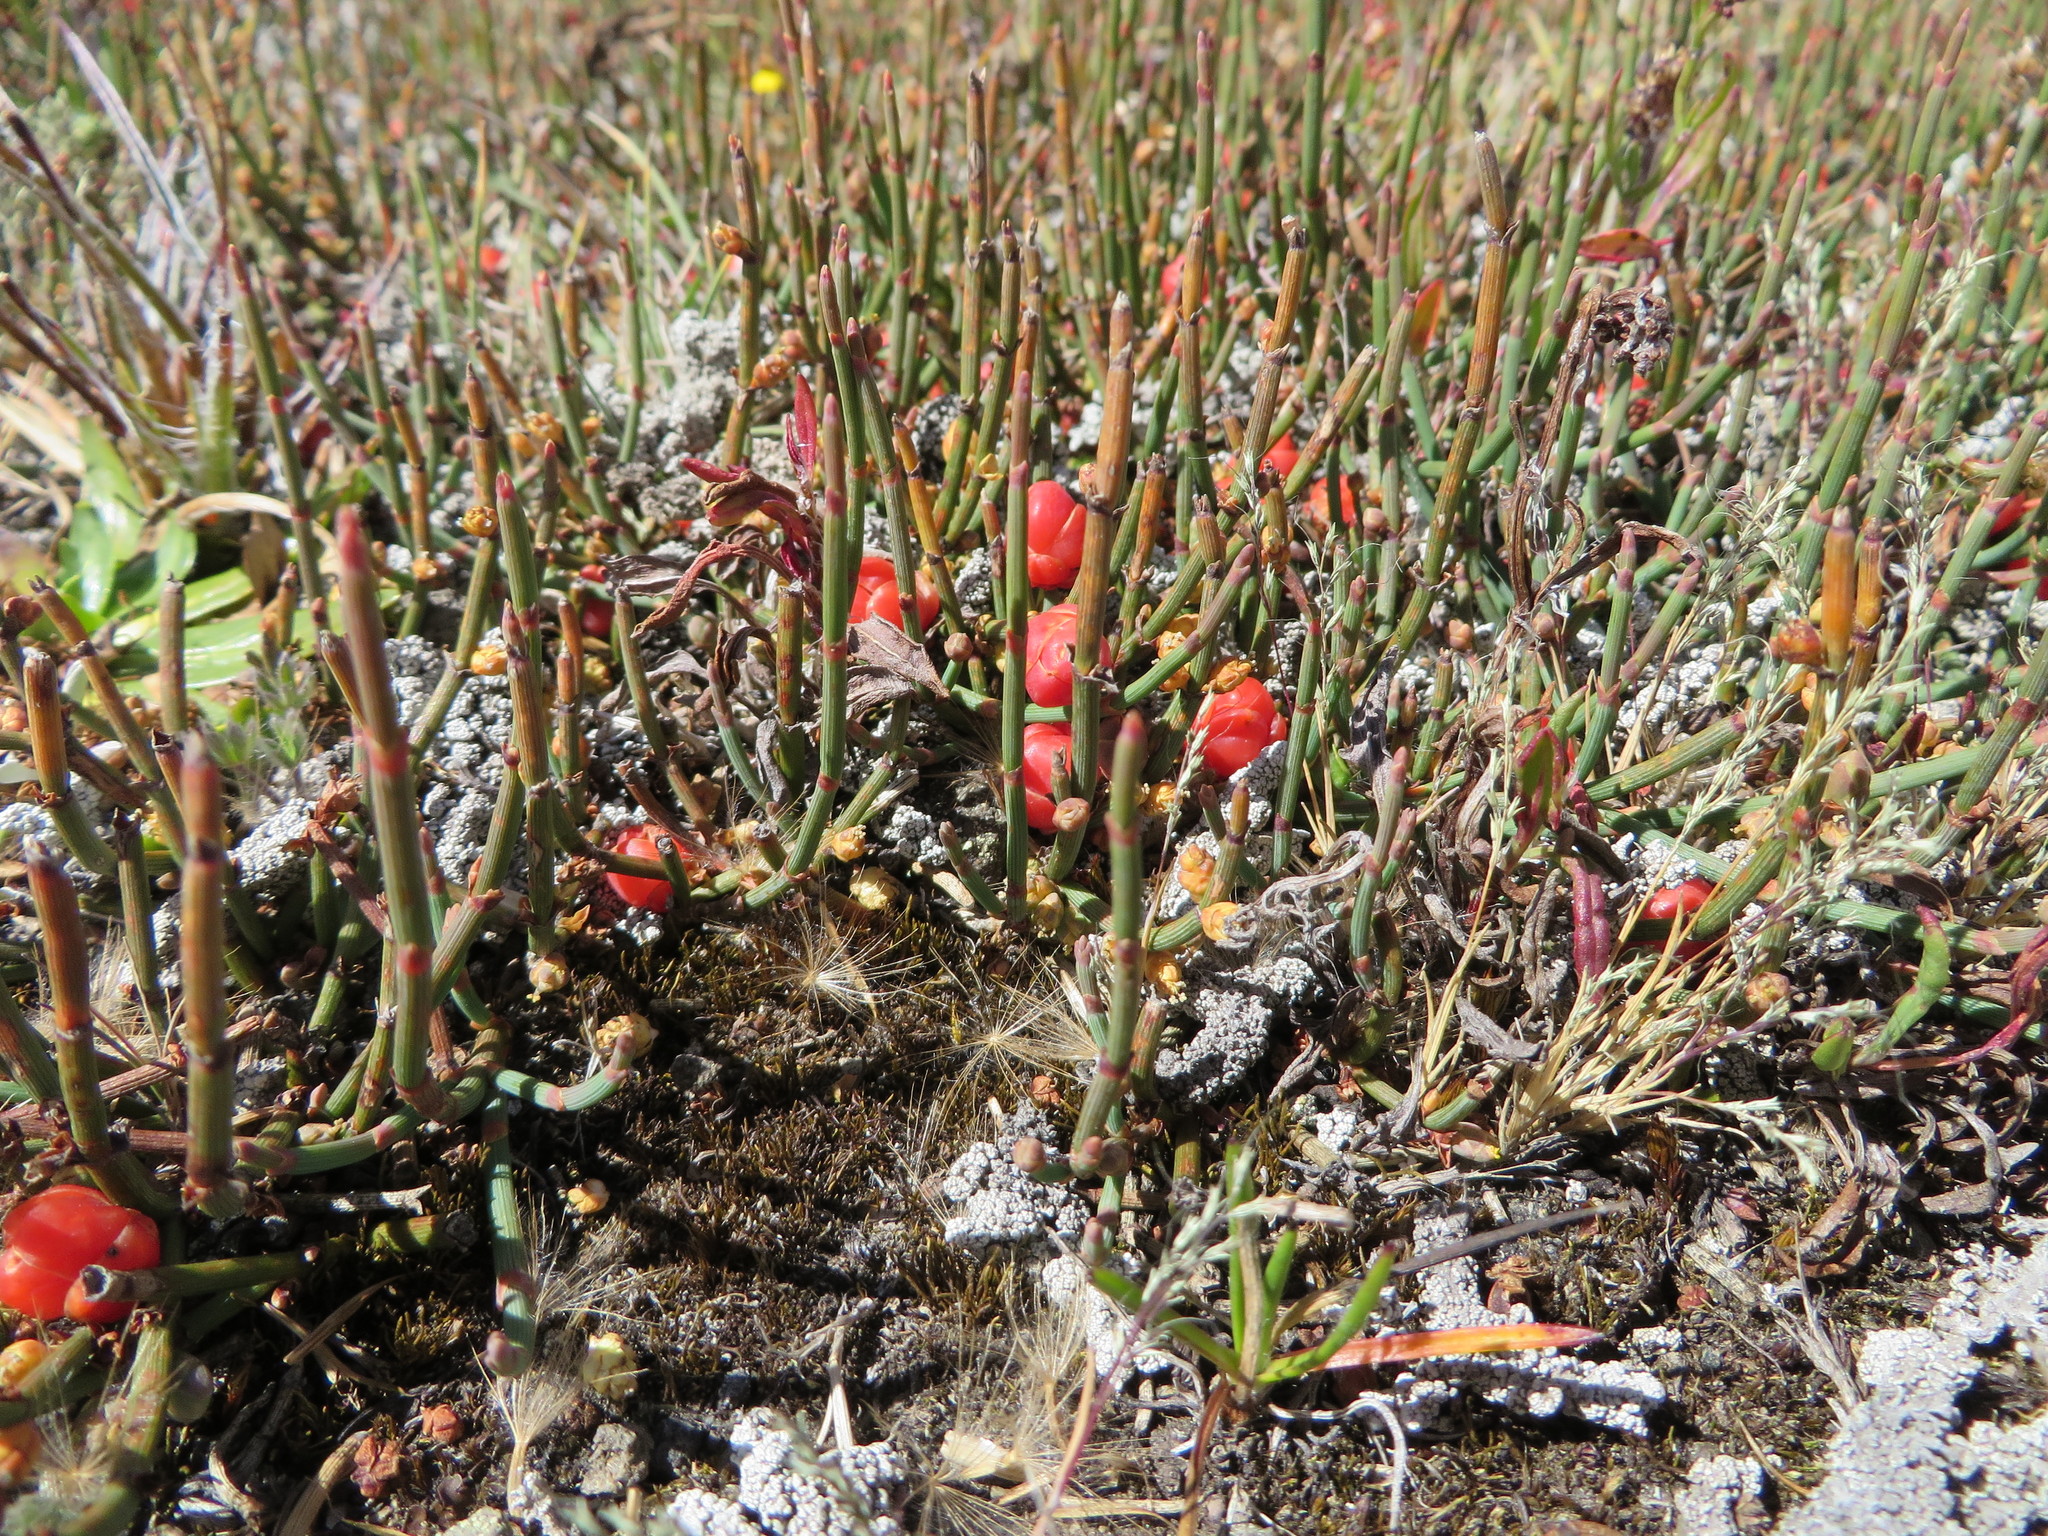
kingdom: Plantae
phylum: Tracheophyta
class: Gnetopsida
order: Ephedrales
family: Ephedraceae
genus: Ephedra
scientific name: Ephedra rupestris
